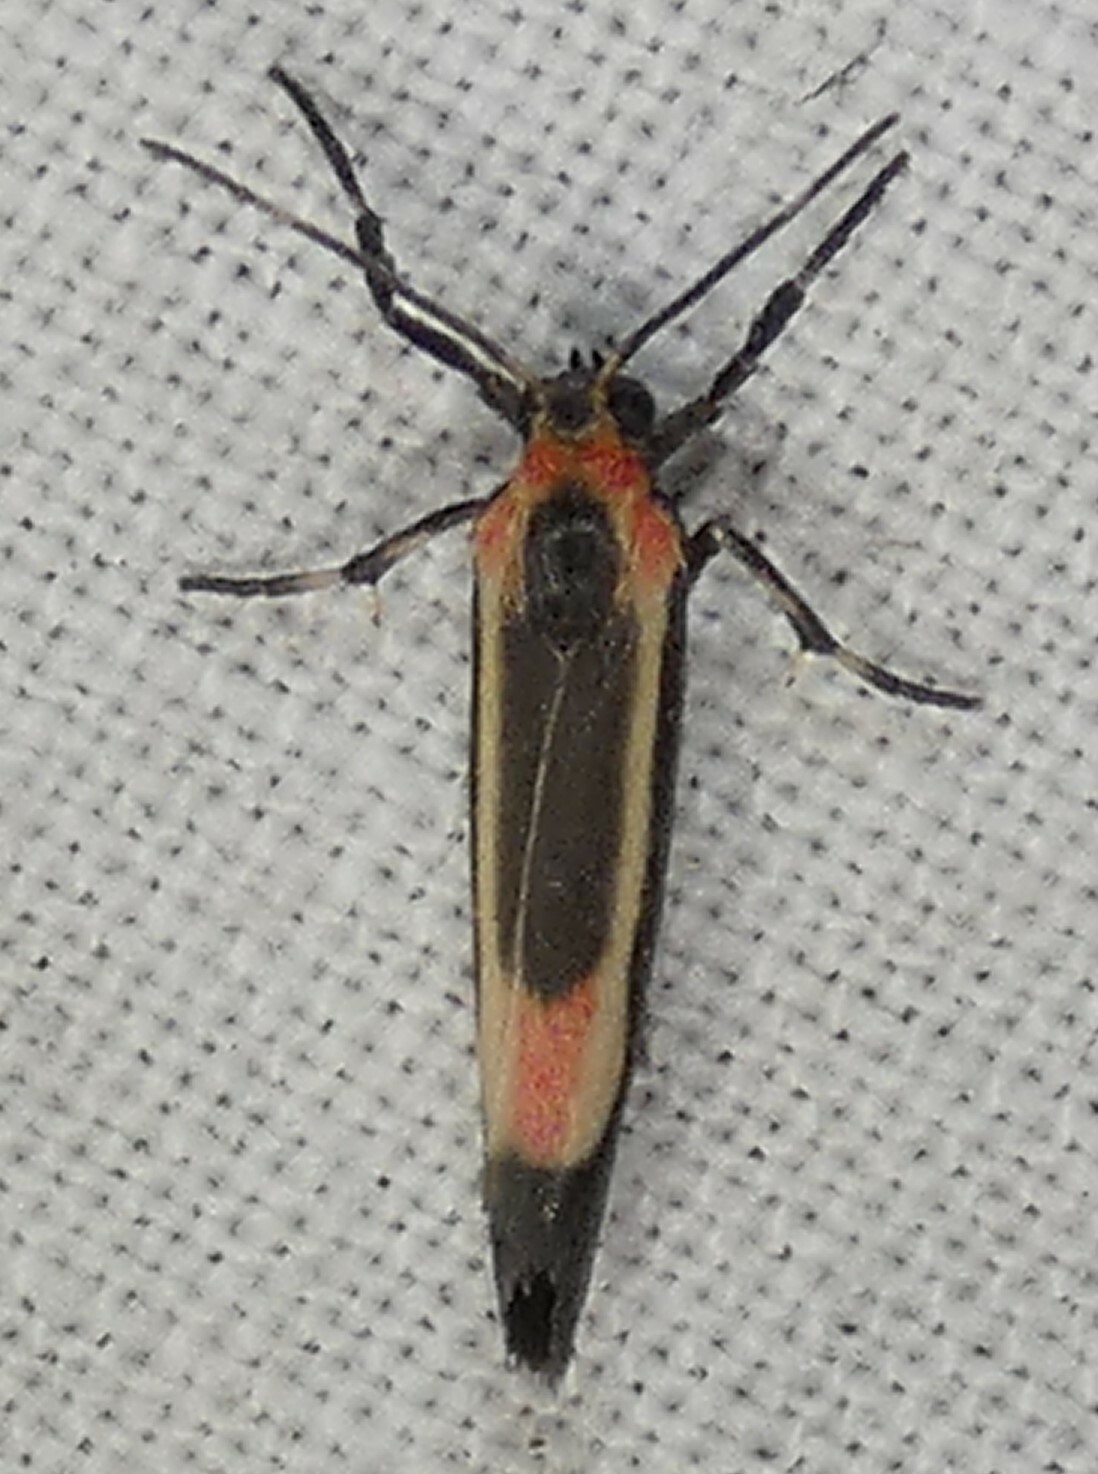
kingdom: Animalia
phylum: Arthropoda
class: Insecta
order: Lepidoptera
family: Erebidae
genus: Cisthene
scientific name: Cisthene packardii
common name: Packard's lichen moth
